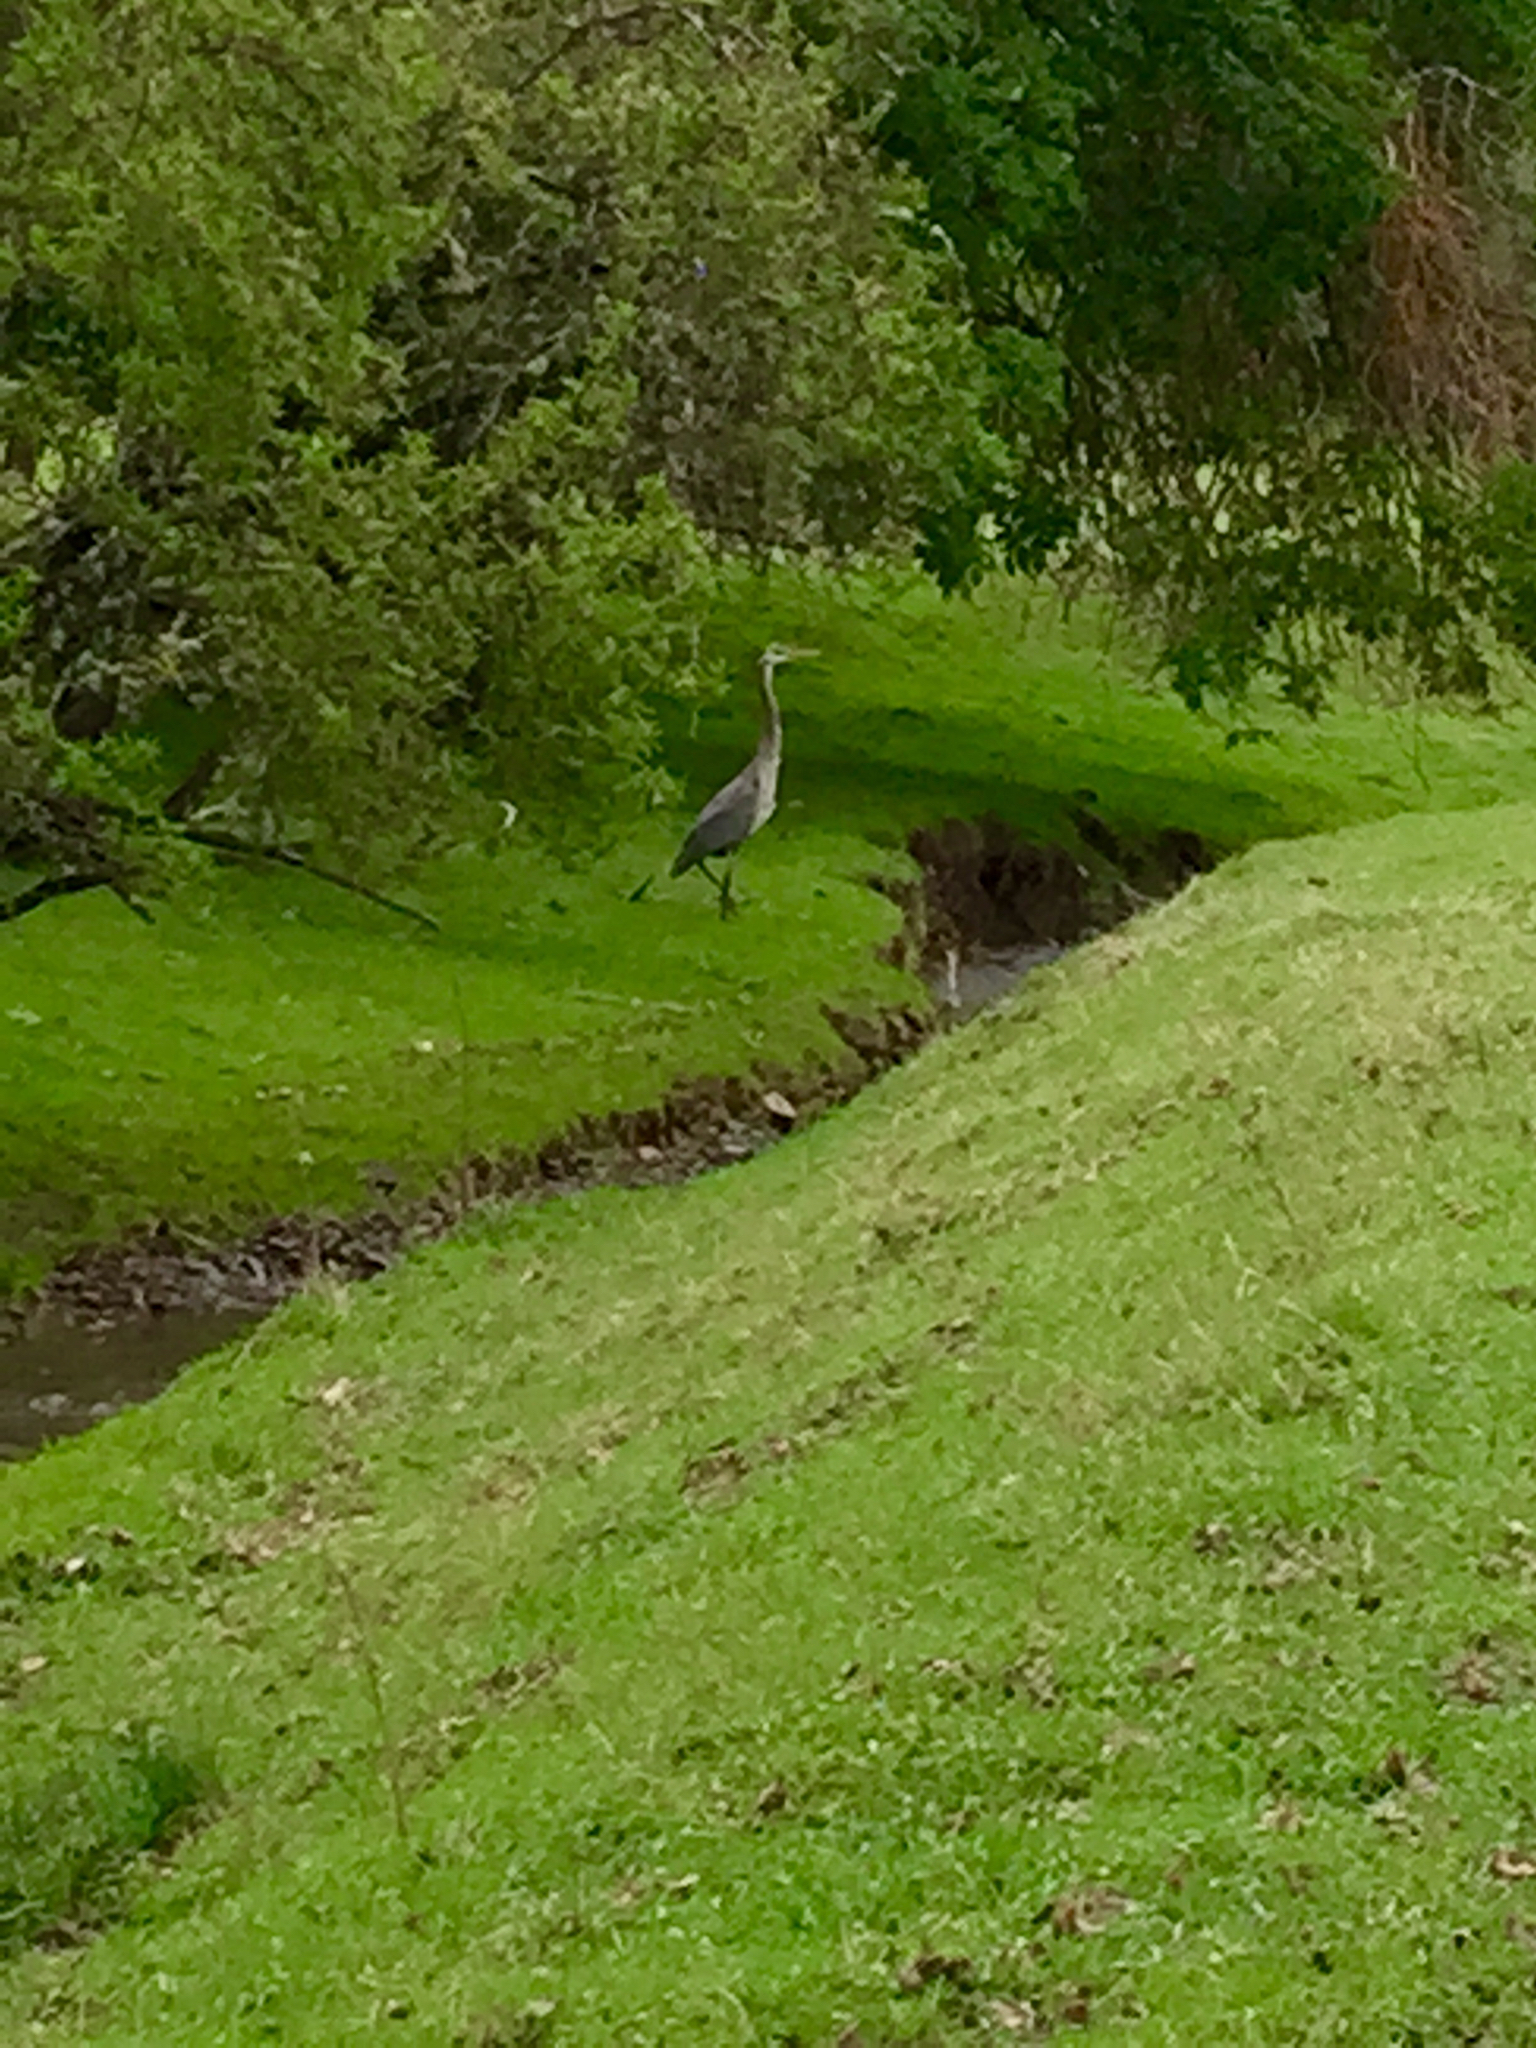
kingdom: Animalia
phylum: Chordata
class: Aves
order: Pelecaniformes
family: Ardeidae
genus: Ardea
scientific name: Ardea herodias
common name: Great blue heron
